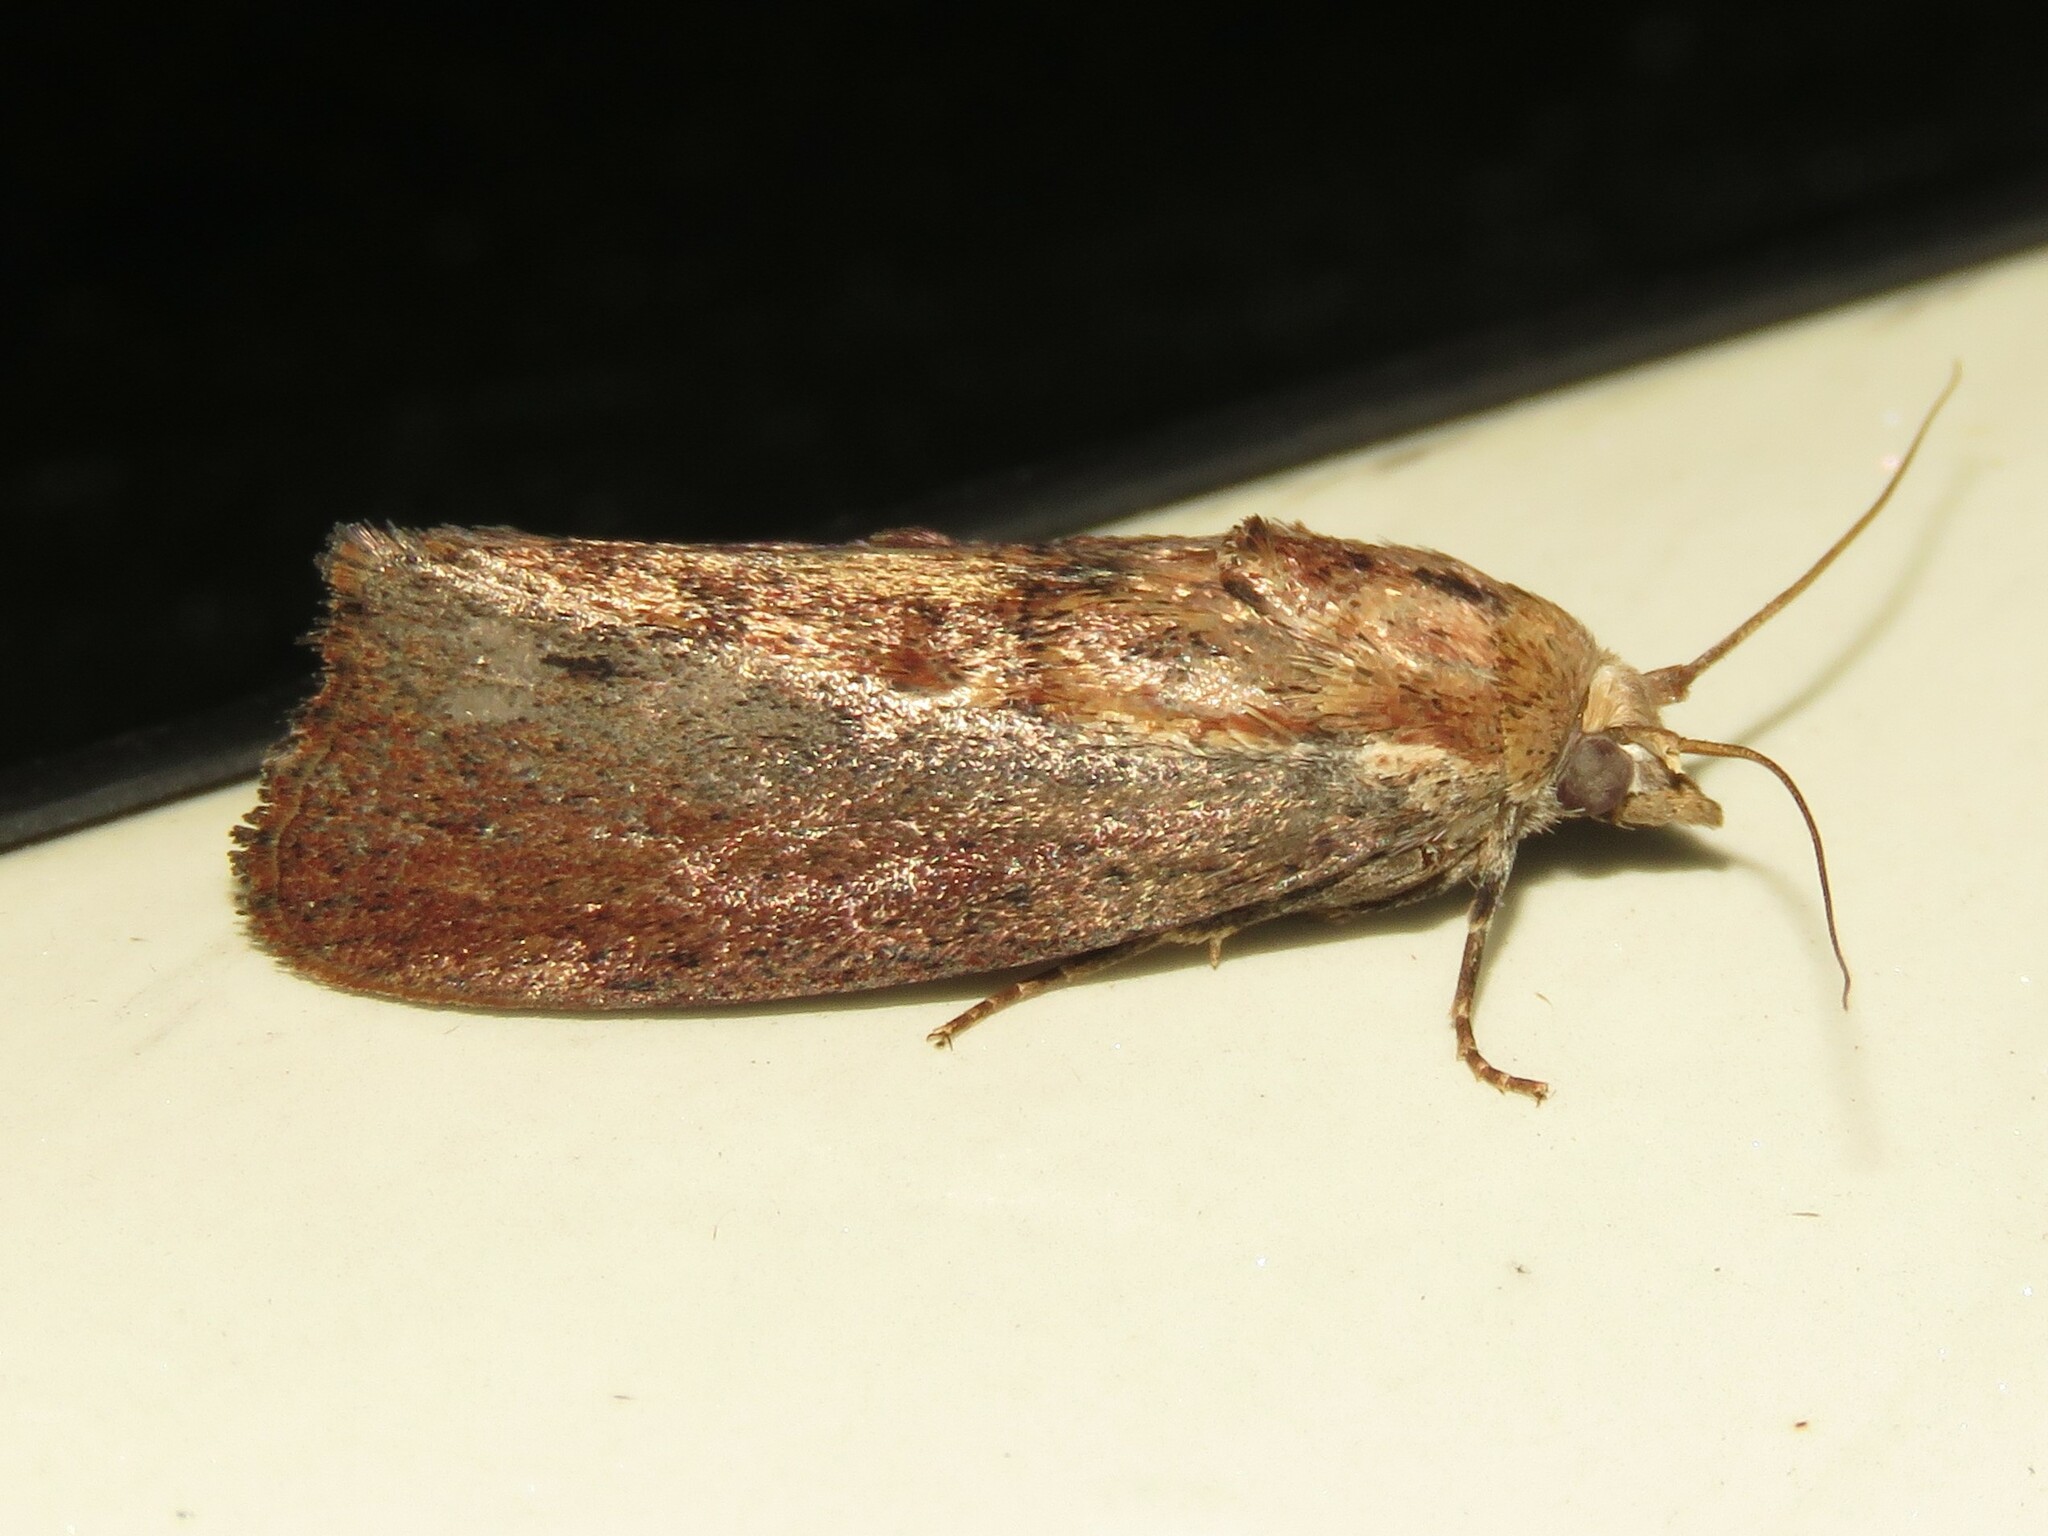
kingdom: Animalia
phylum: Arthropoda
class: Insecta
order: Lepidoptera
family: Pyralidae
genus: Galleria
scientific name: Galleria mellonella
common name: Greater wax moth
